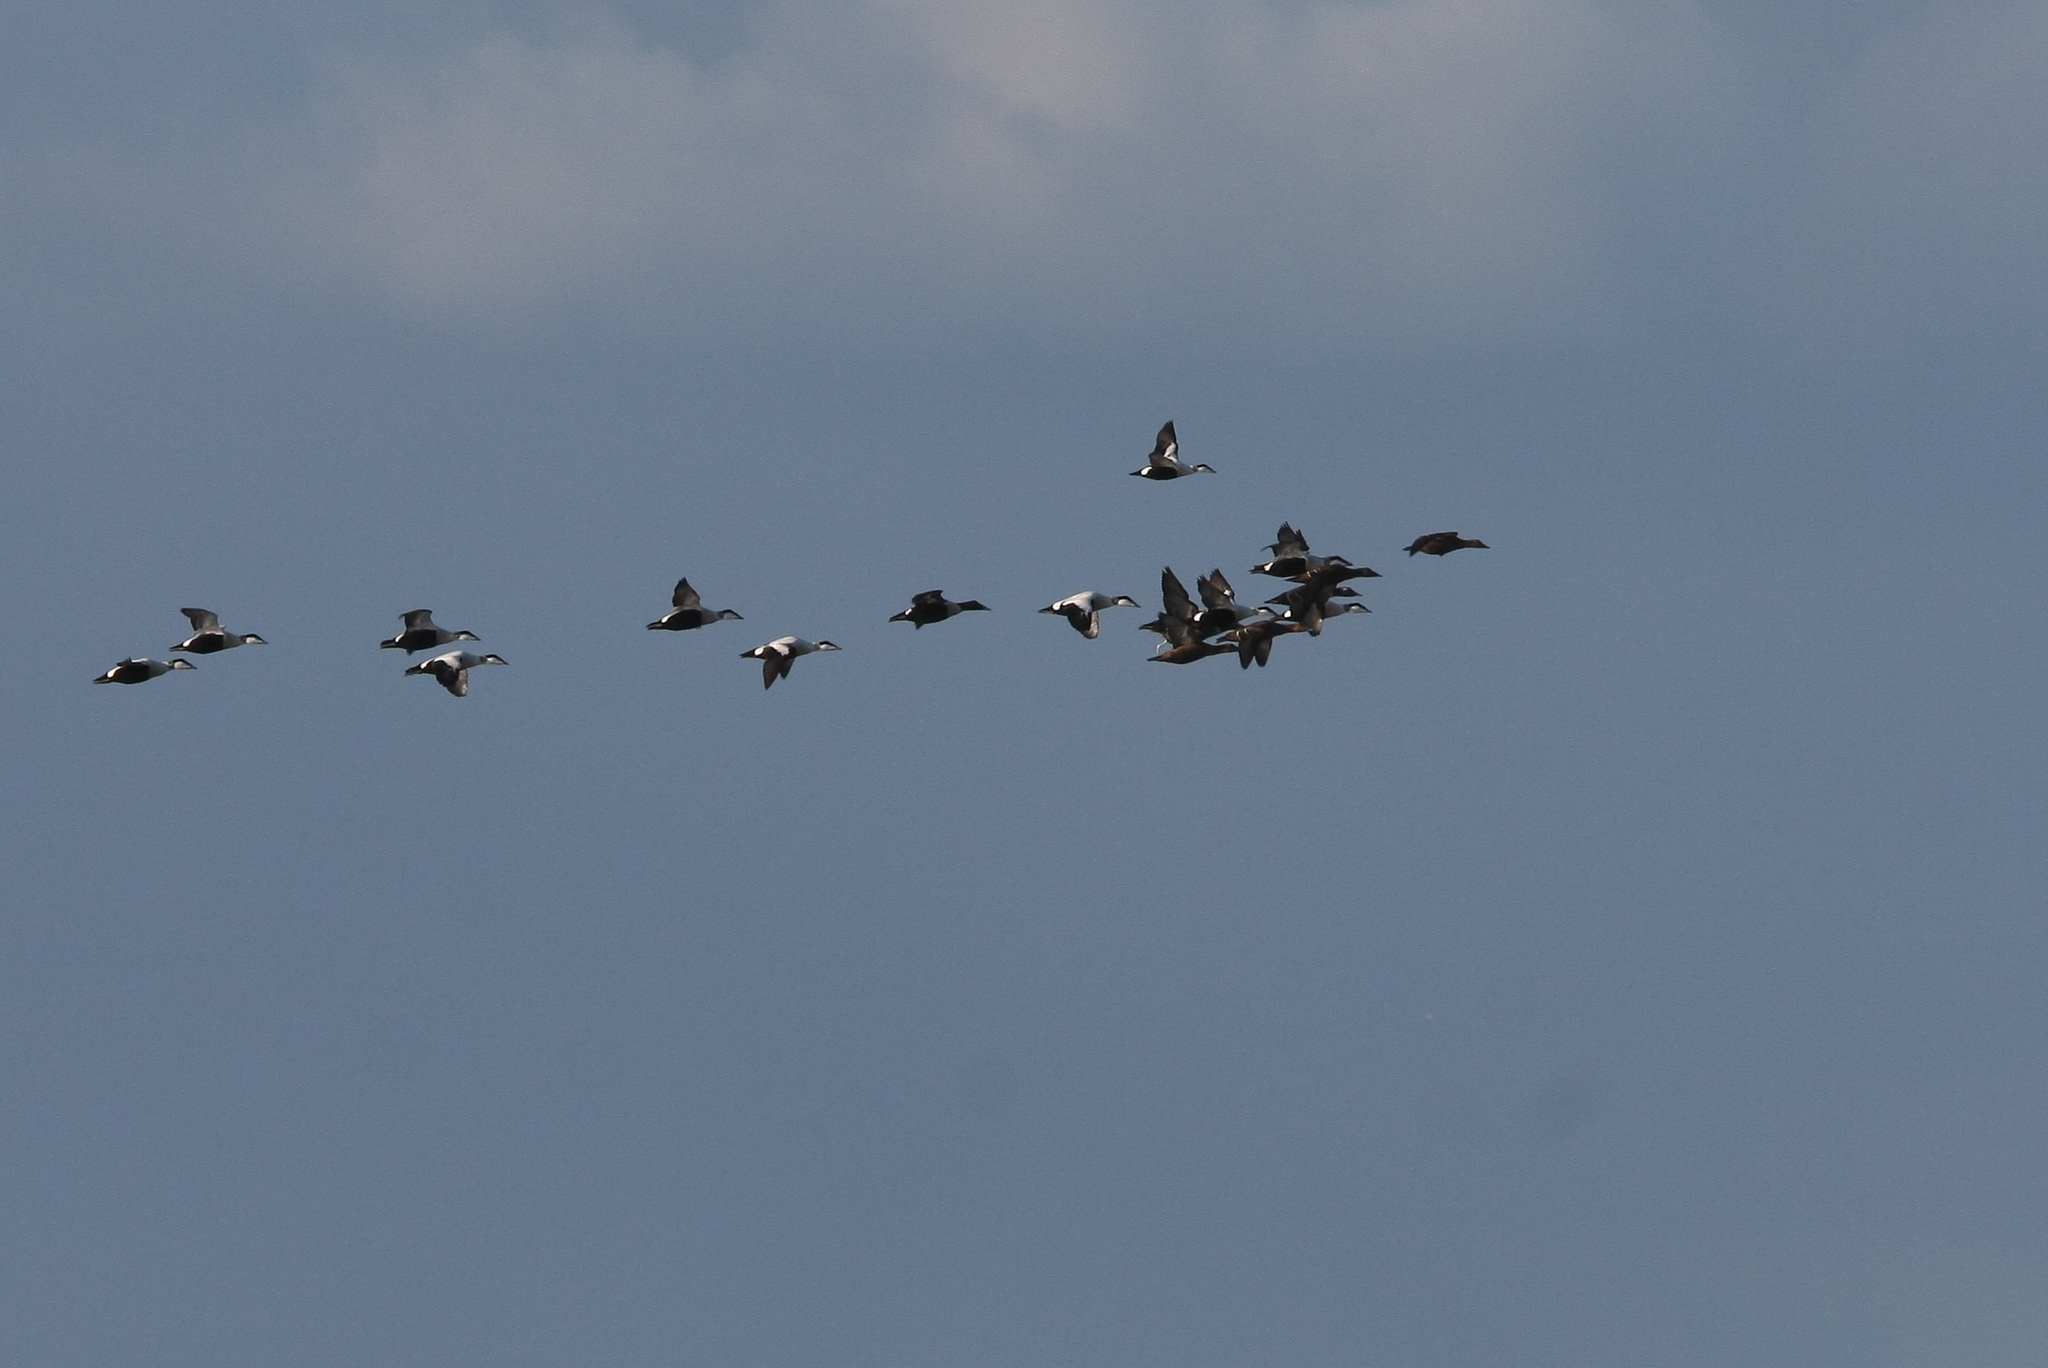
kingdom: Animalia
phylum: Chordata
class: Aves
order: Anseriformes
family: Anatidae
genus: Somateria
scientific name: Somateria mollissima
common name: Common eider
